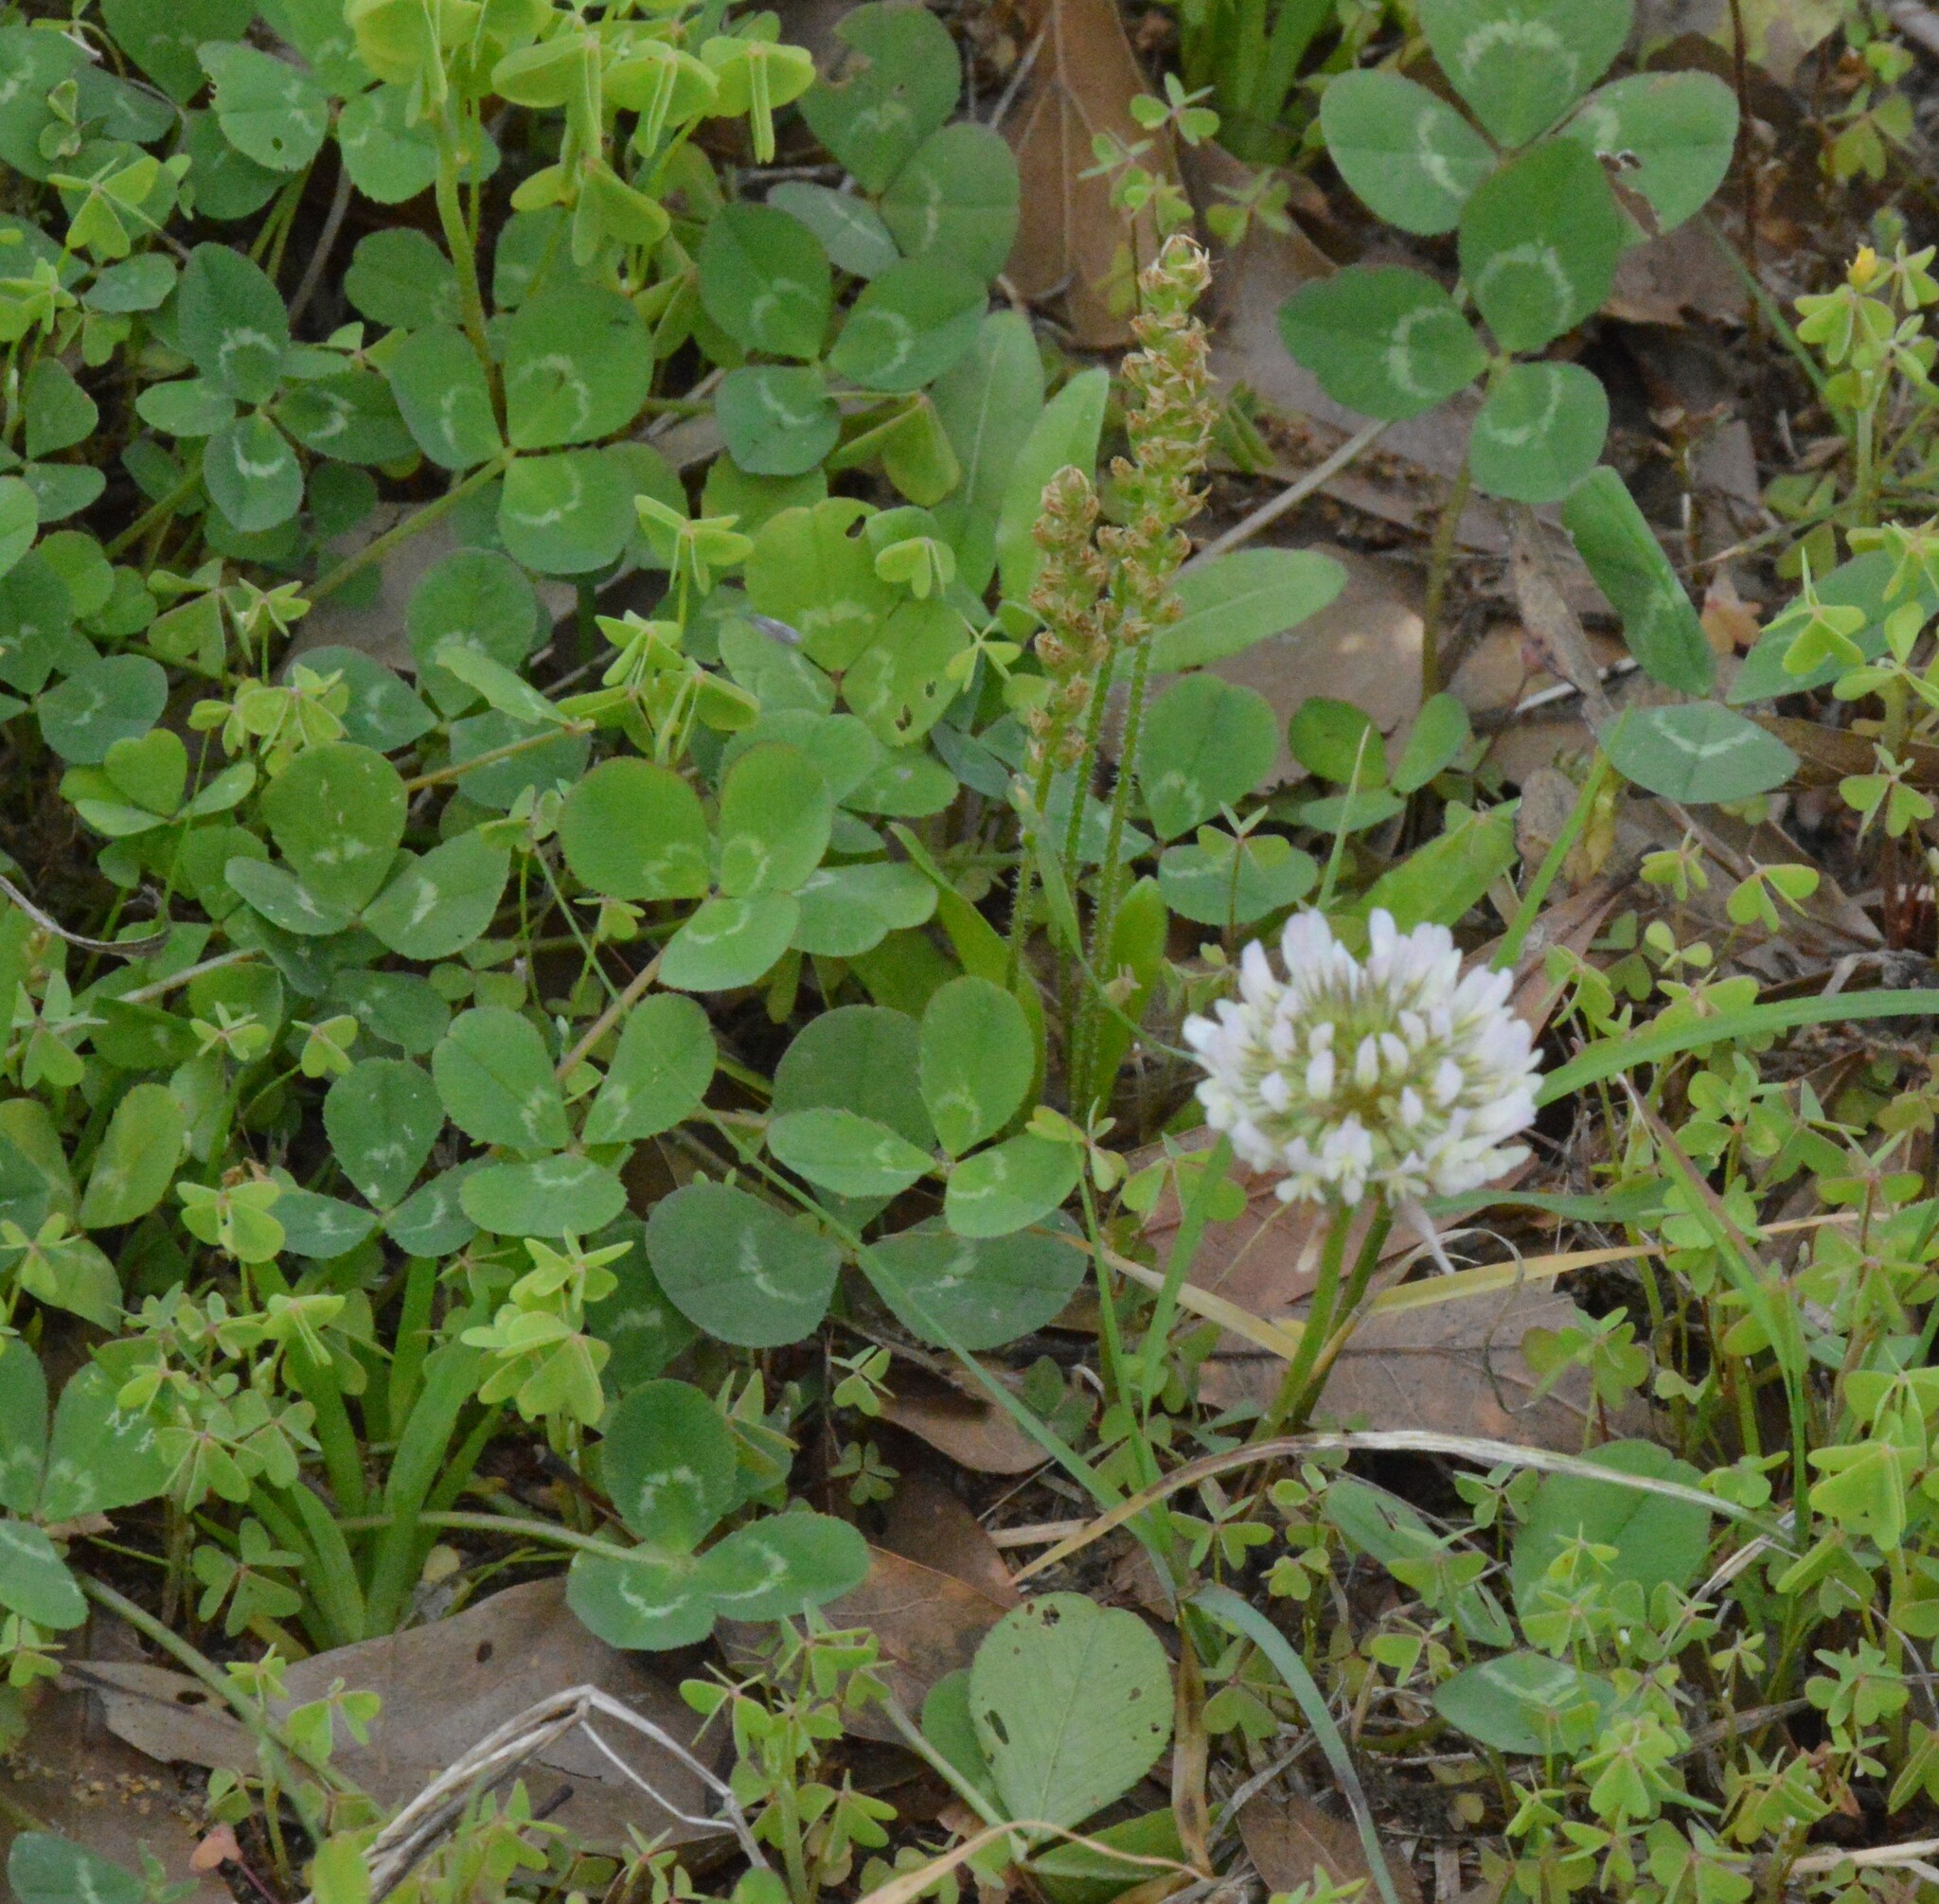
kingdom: Plantae
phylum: Tracheophyta
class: Magnoliopsida
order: Fabales
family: Fabaceae
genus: Trifolium
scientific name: Trifolium repens
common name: White clover
